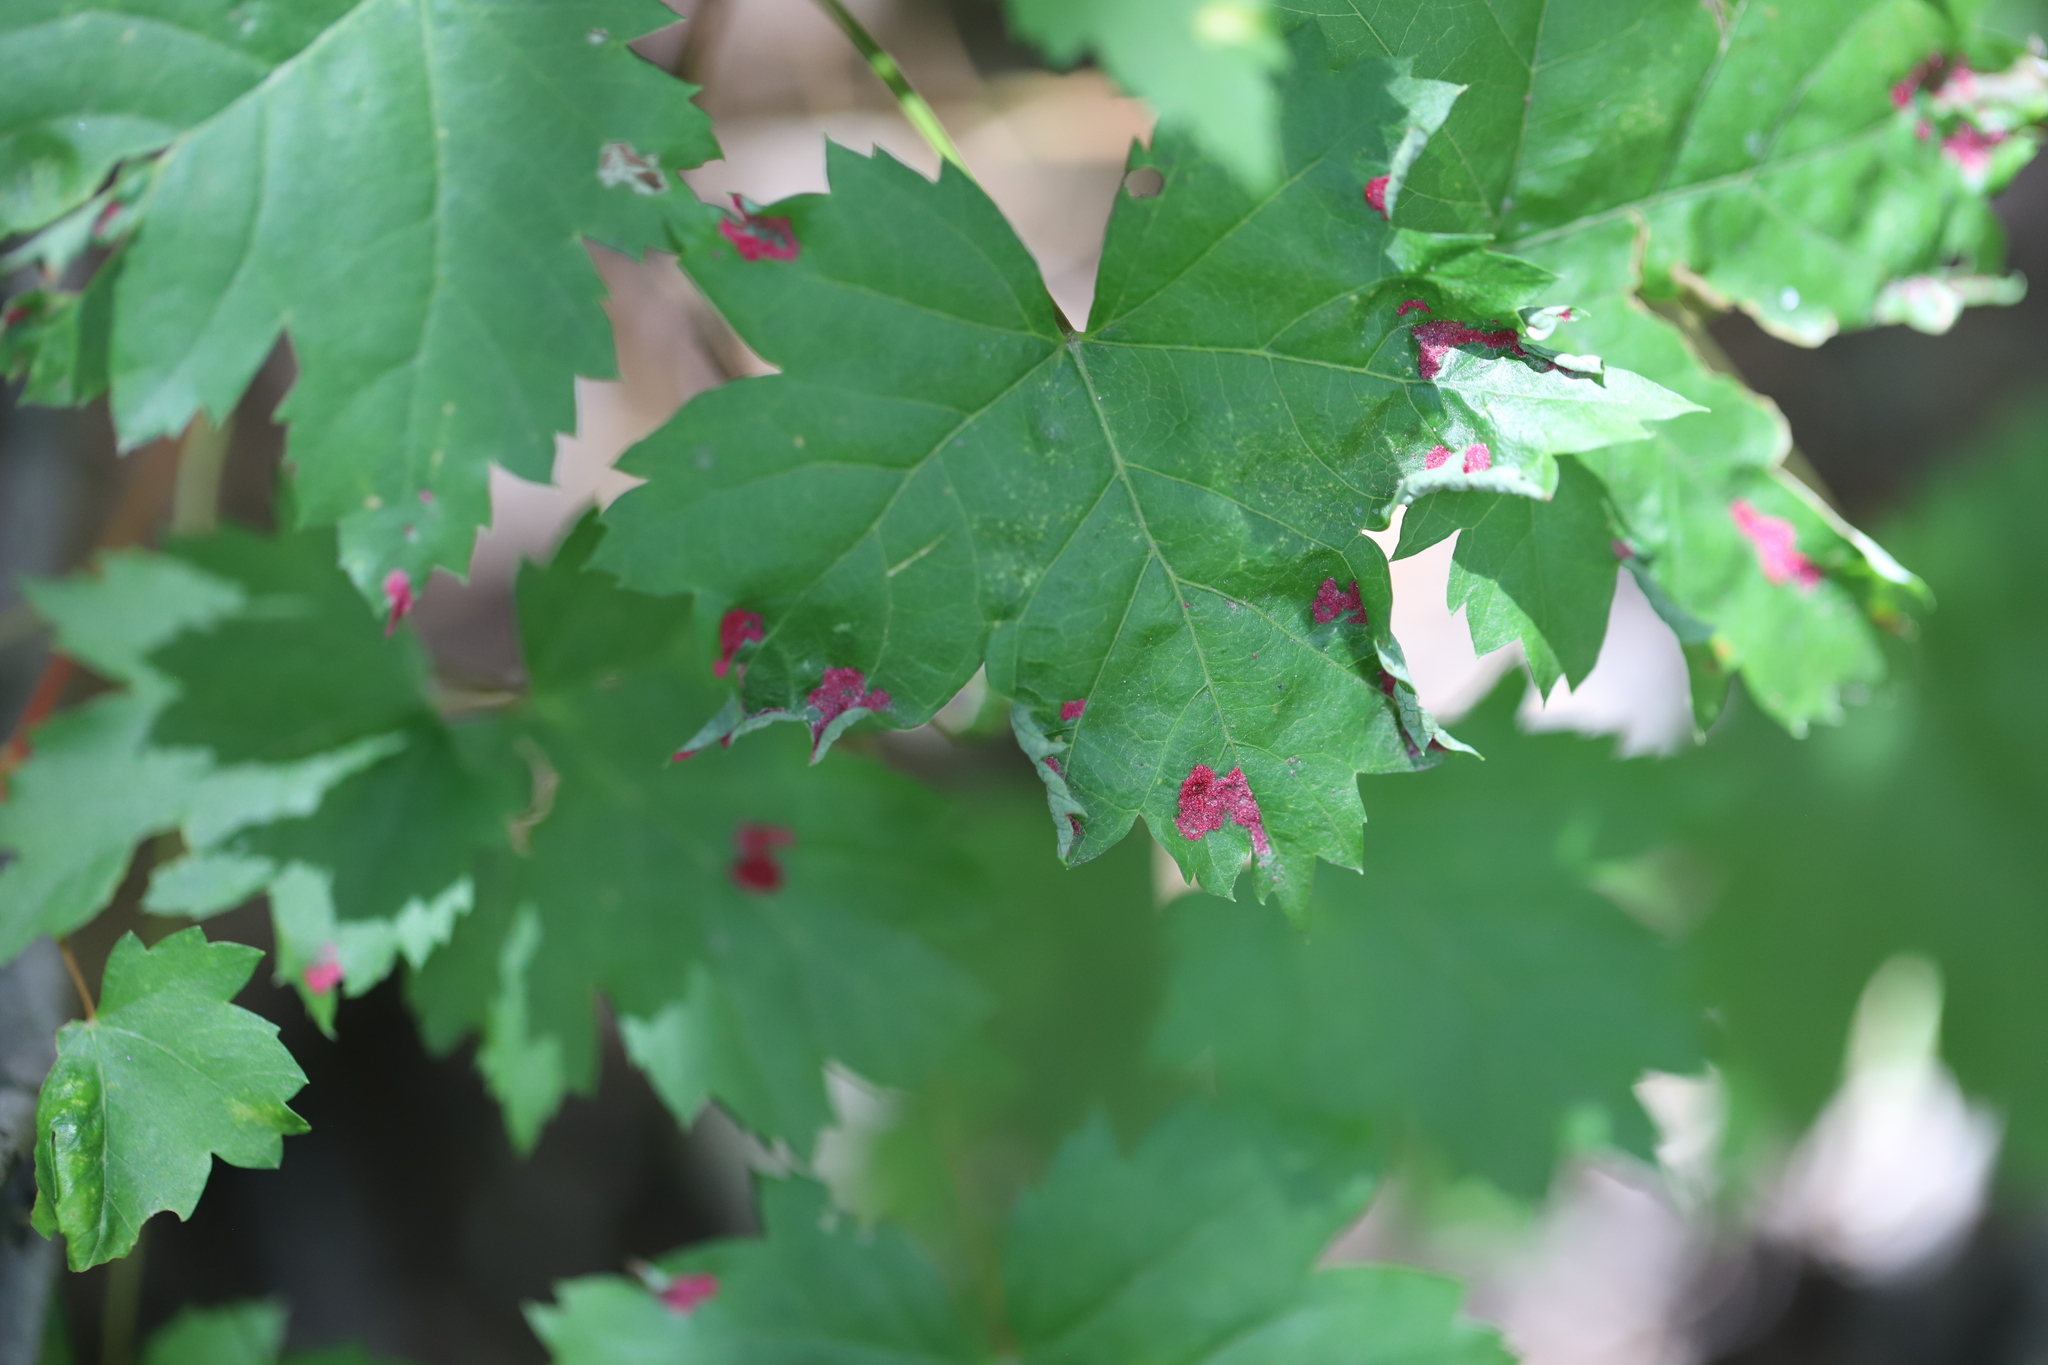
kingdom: Plantae
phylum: Tracheophyta
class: Magnoliopsida
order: Sapindales
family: Sapindaceae
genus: Acer
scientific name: Acer glabrum
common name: Rocky mountain maple
